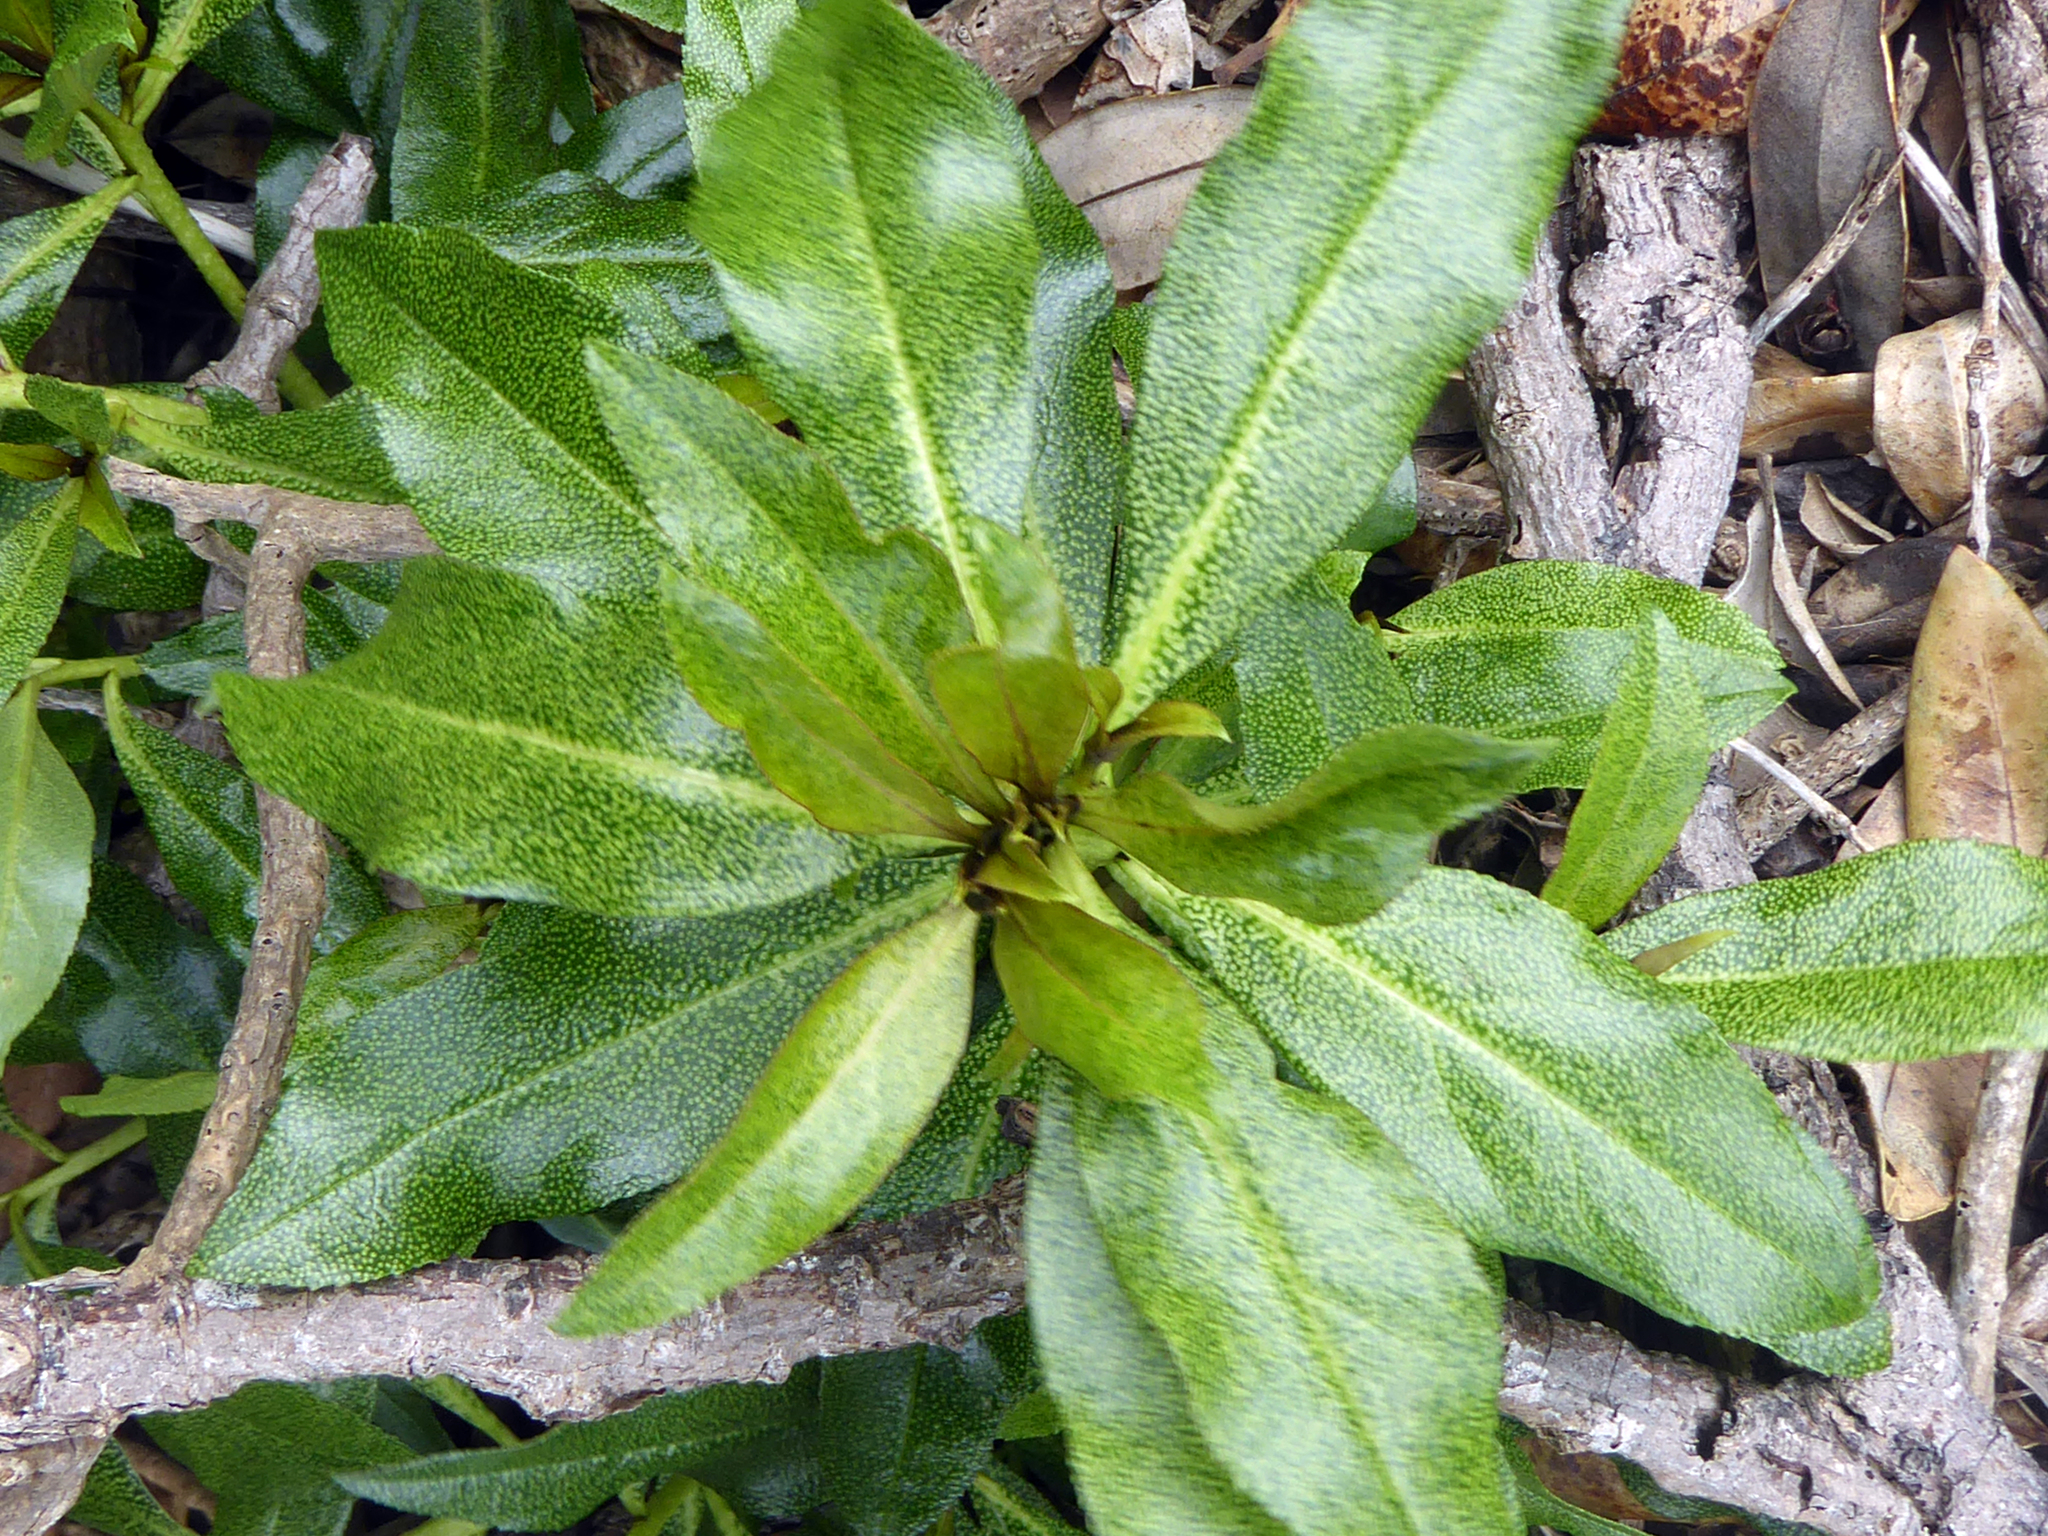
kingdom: Plantae
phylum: Tracheophyta
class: Magnoliopsida
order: Lamiales
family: Scrophulariaceae
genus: Myoporum
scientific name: Myoporum laetum
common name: Ngaio tree
